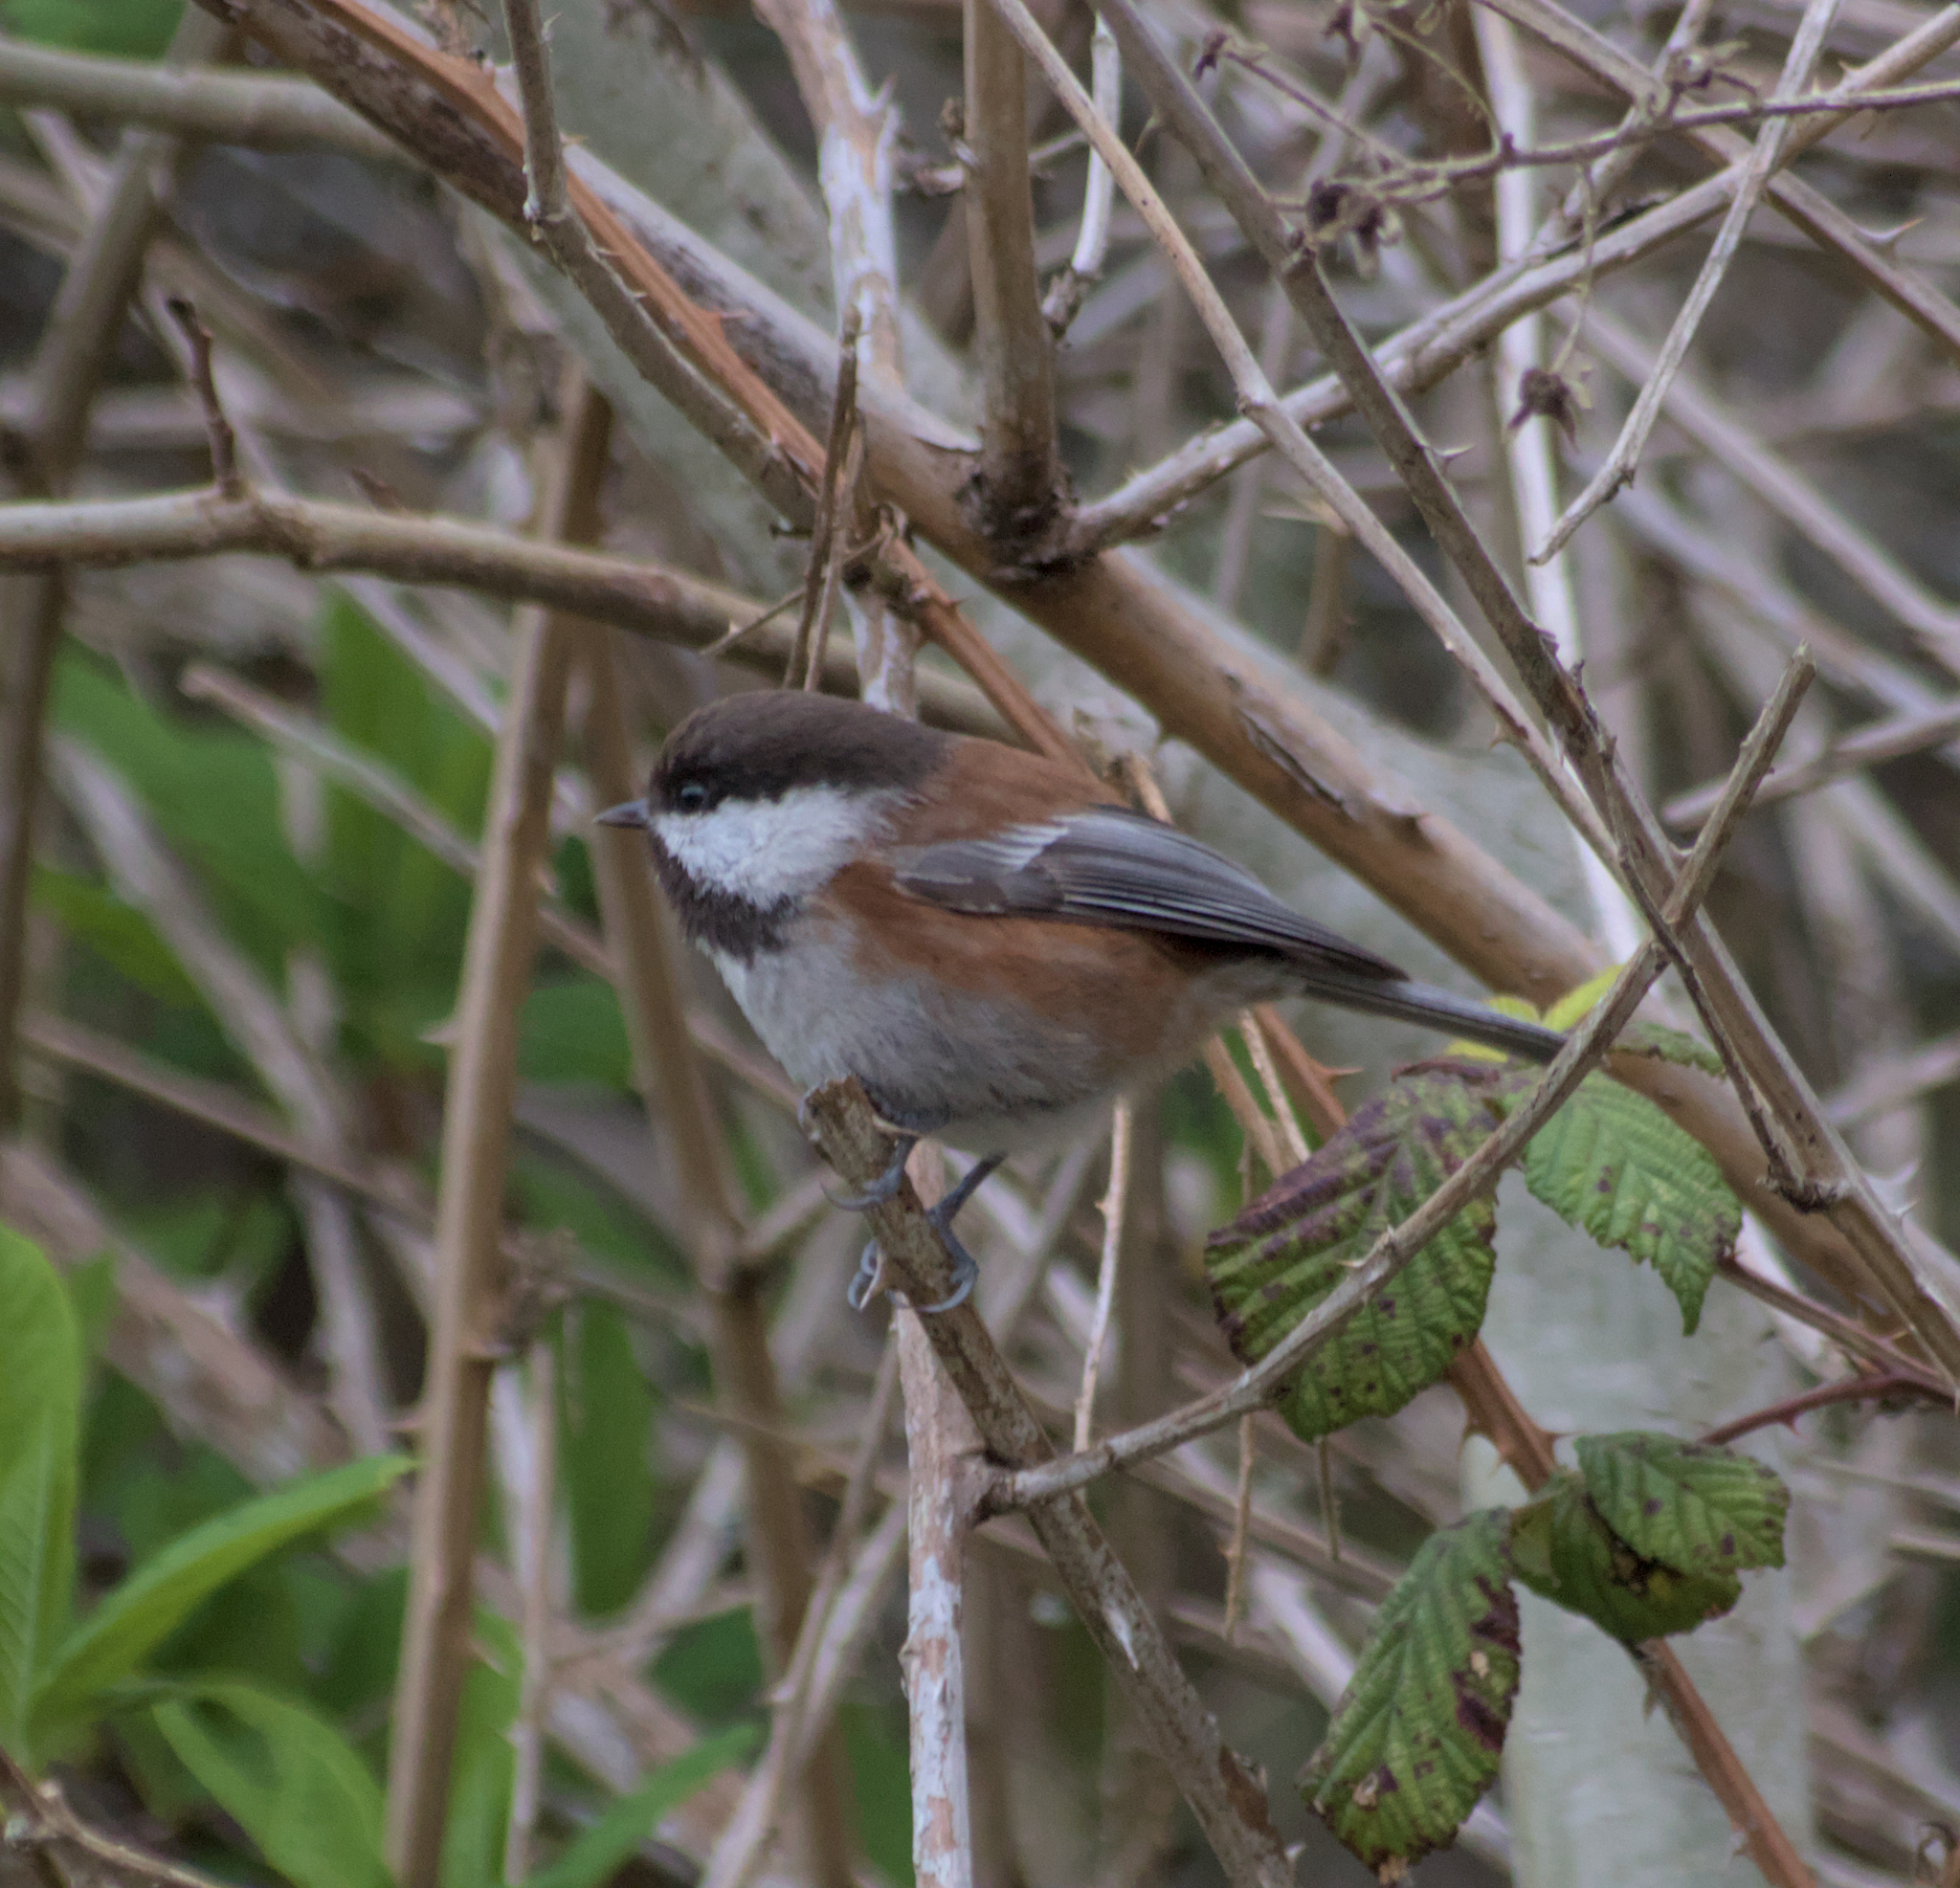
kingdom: Animalia
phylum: Chordata
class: Aves
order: Passeriformes
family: Paridae
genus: Poecile
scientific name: Poecile rufescens
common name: Chestnut-backed chickadee
